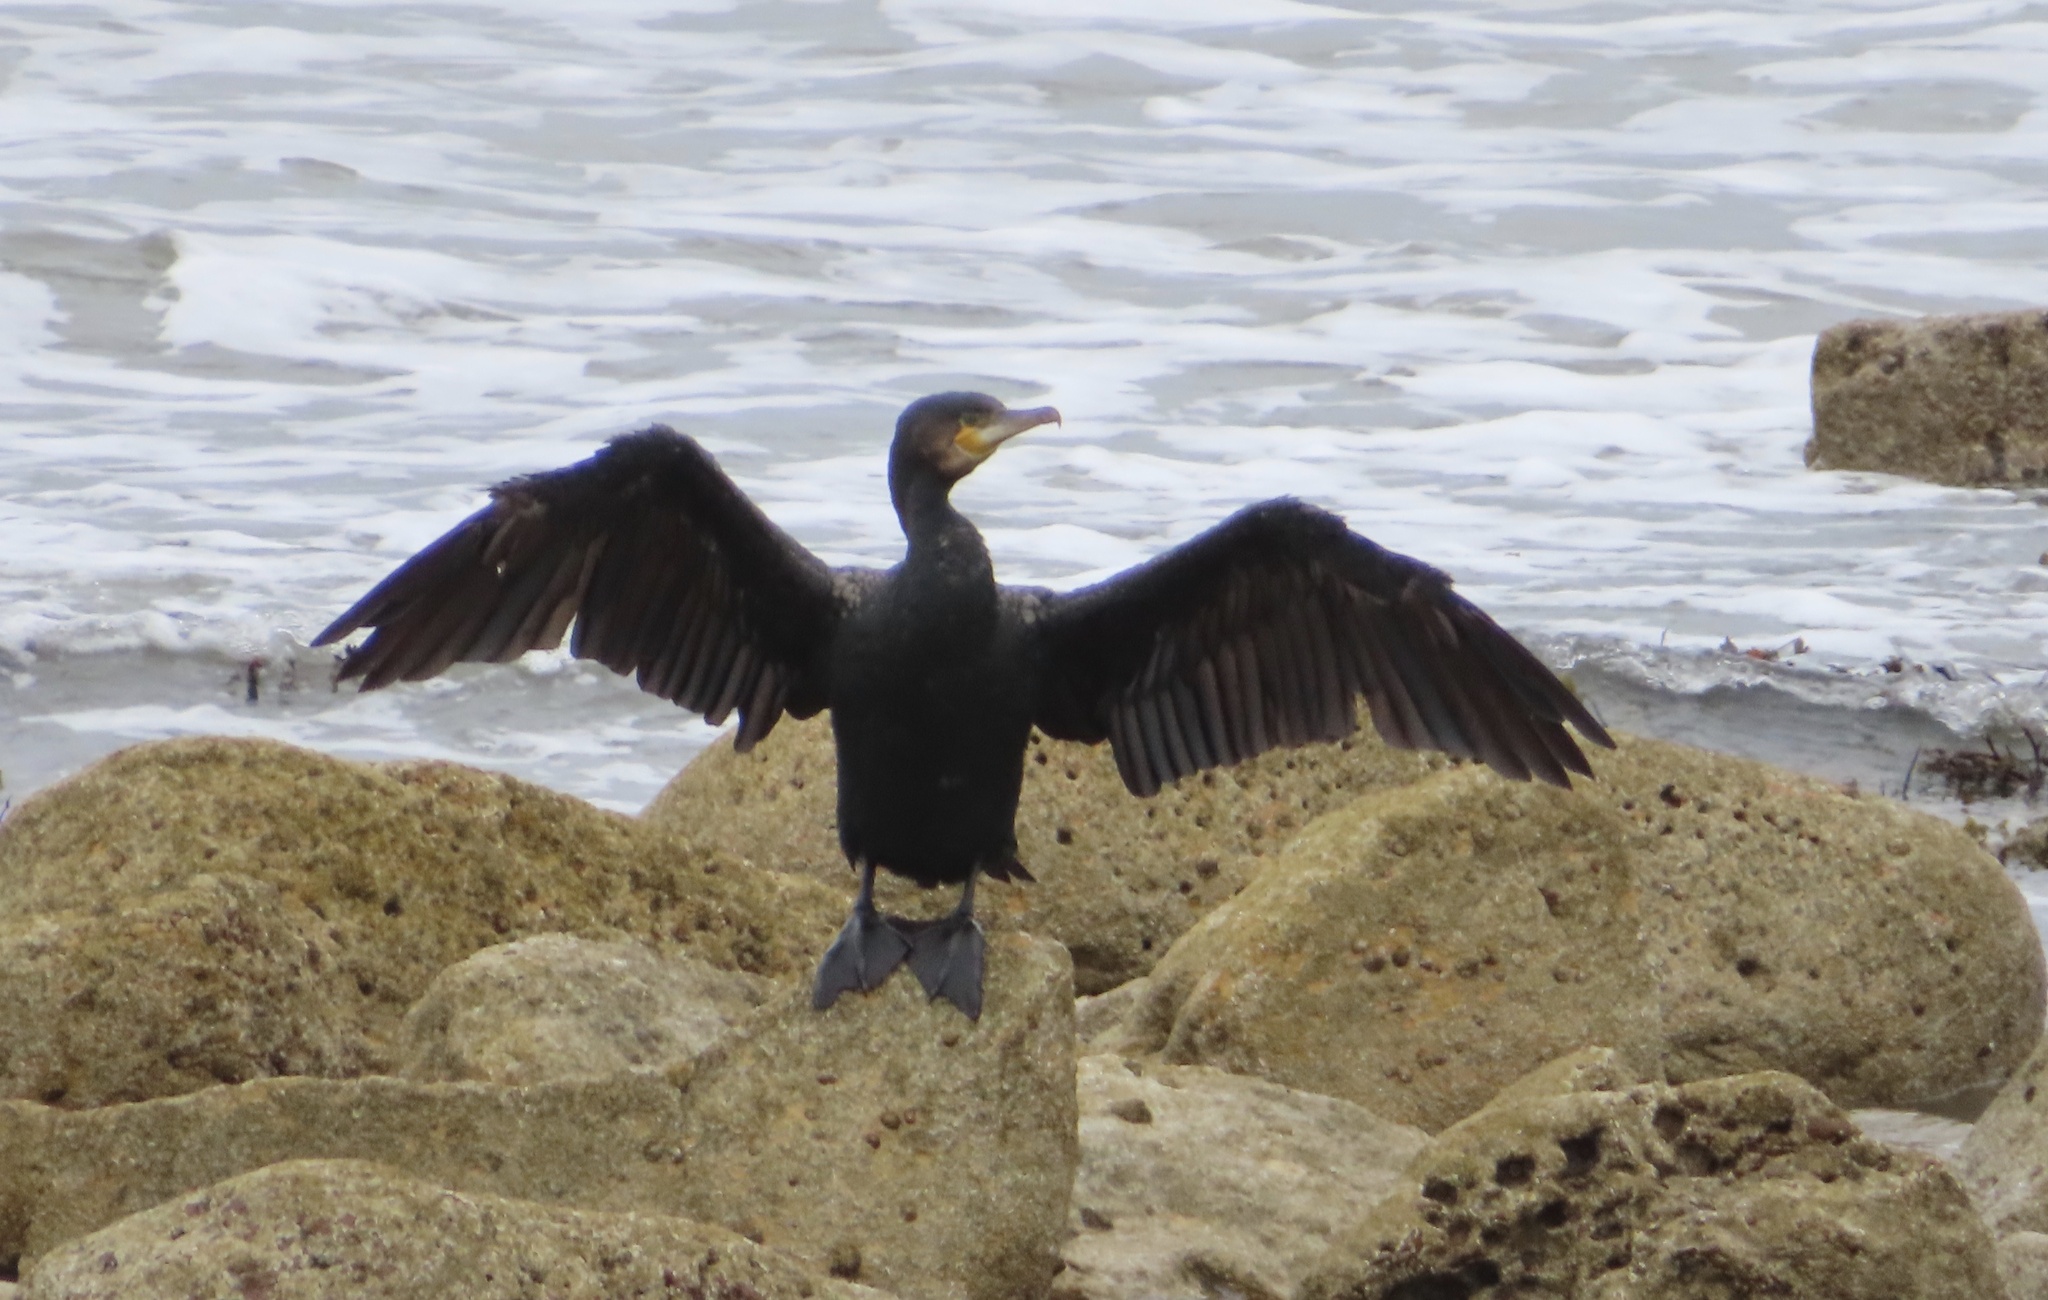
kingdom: Animalia
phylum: Chordata
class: Aves
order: Suliformes
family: Phalacrocoracidae
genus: Phalacrocorax
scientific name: Phalacrocorax carbo
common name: Great cormorant
